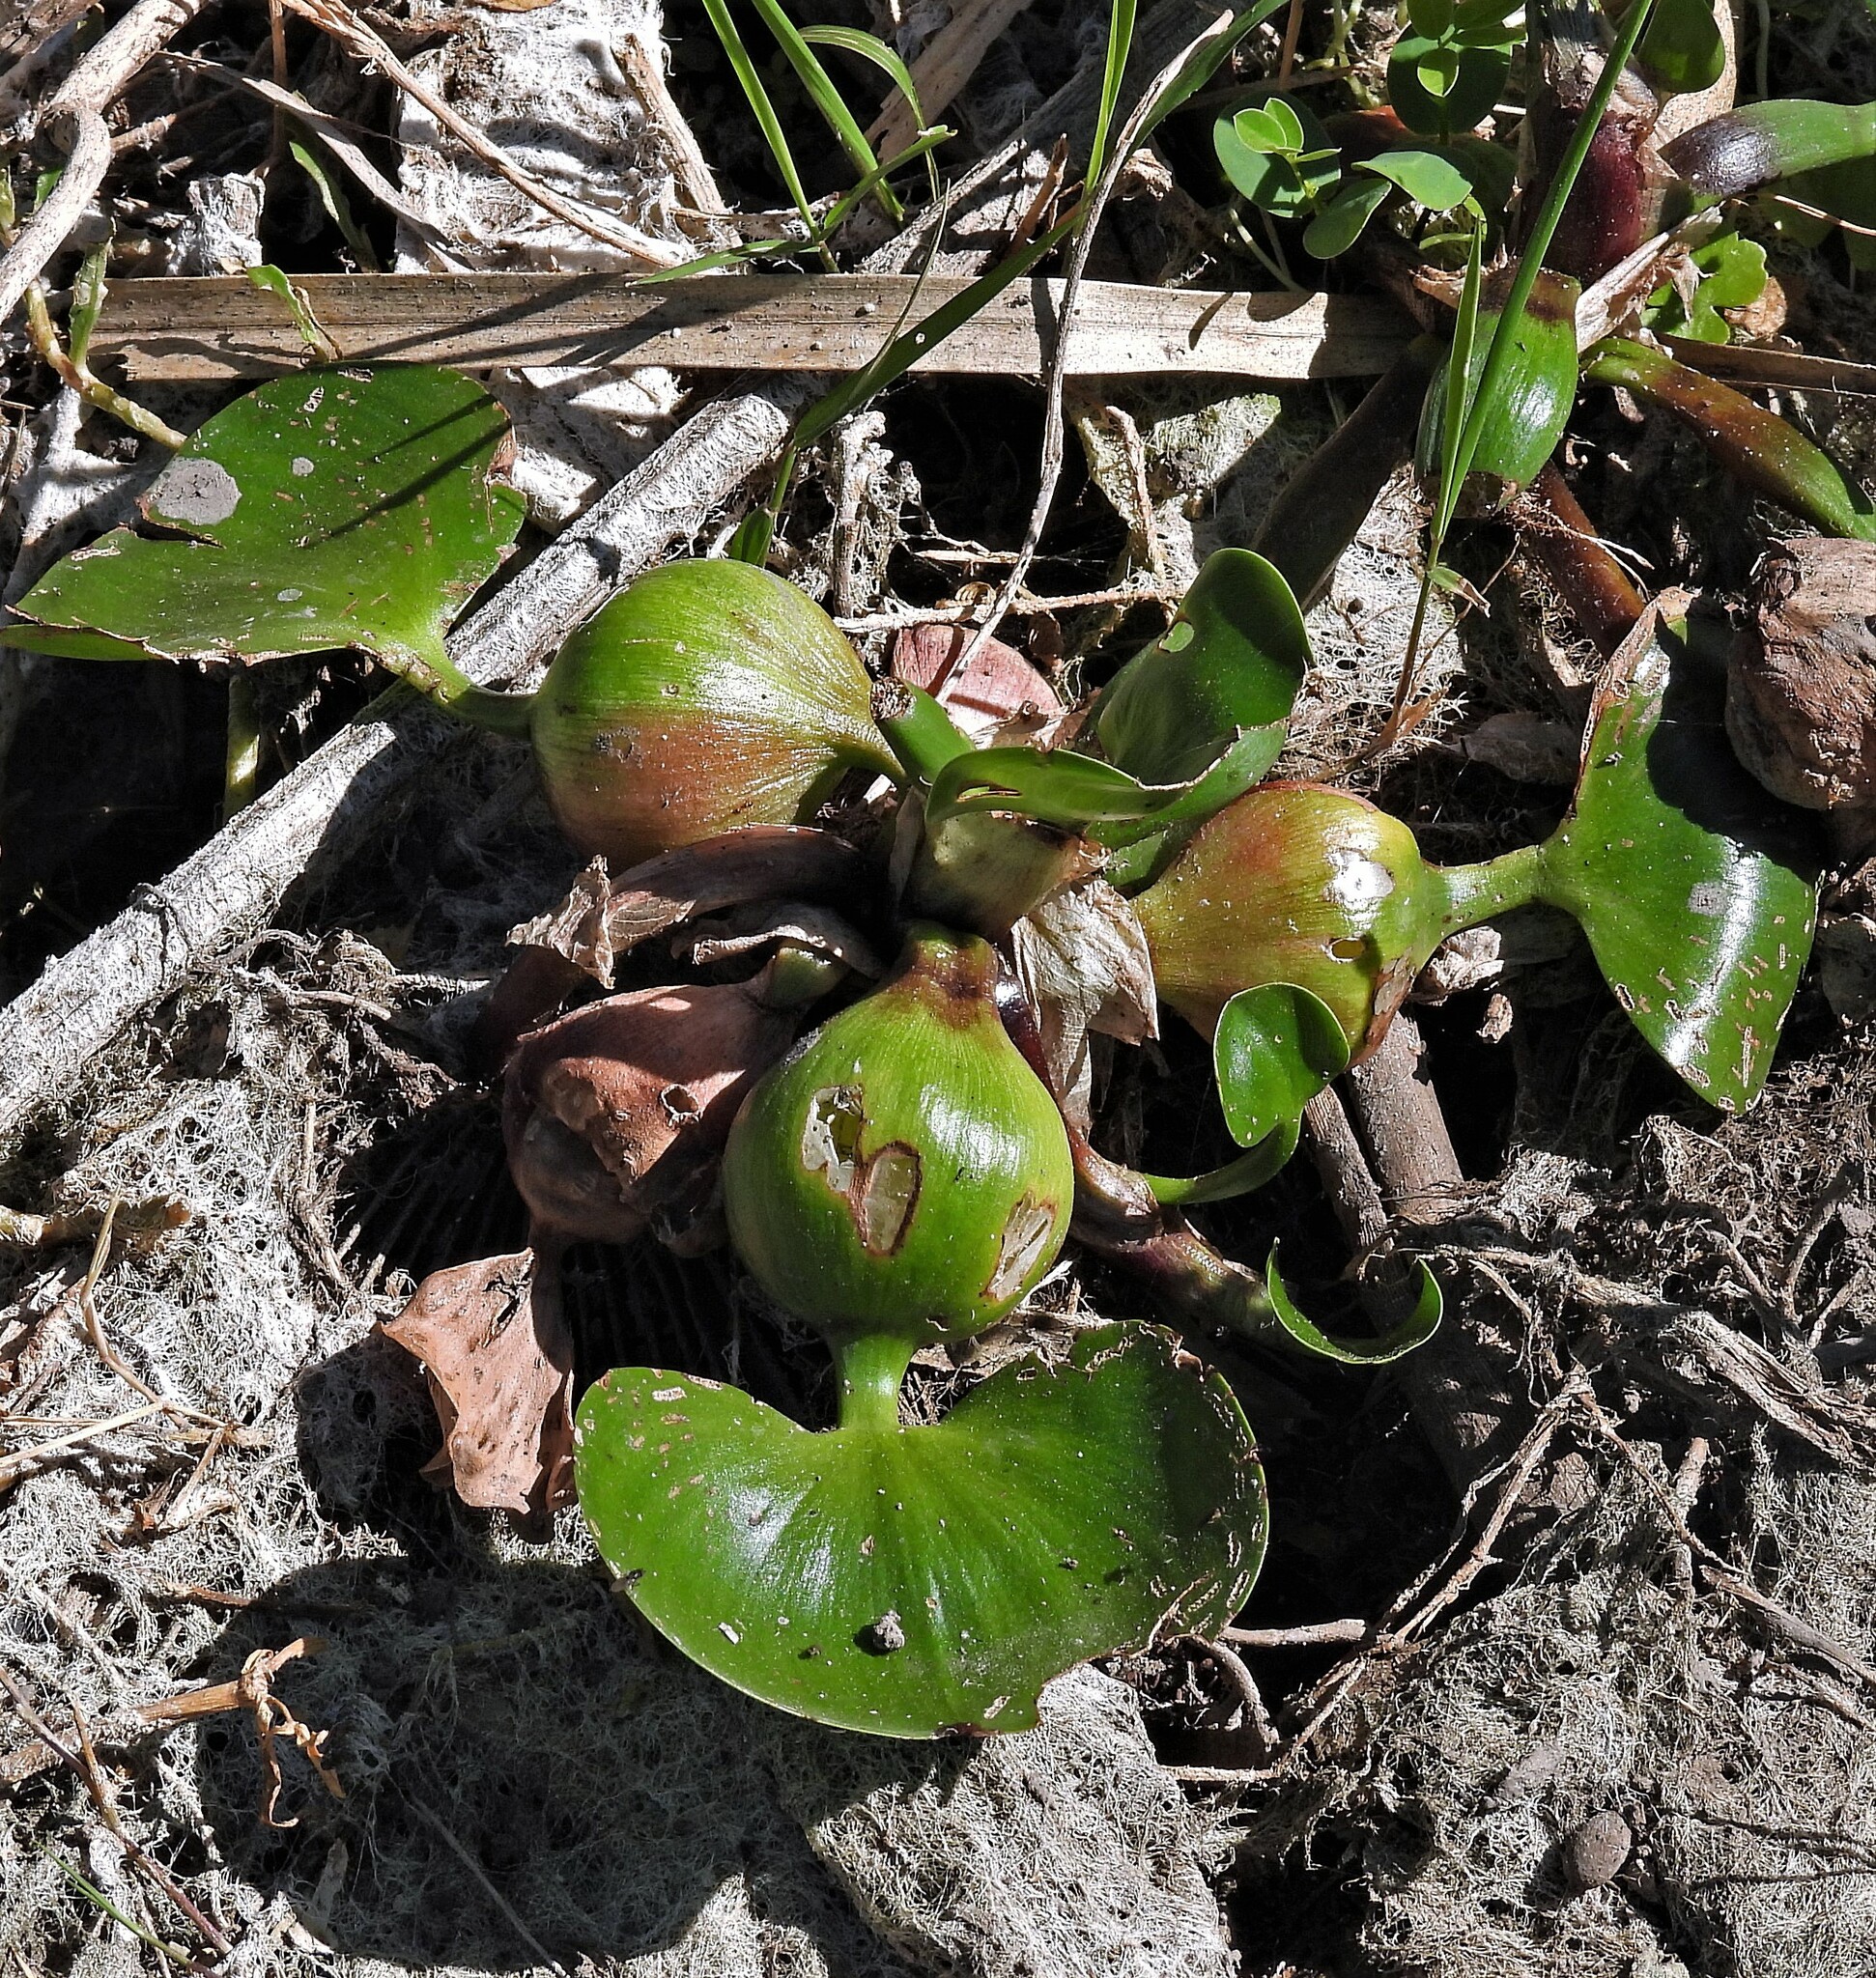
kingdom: Plantae
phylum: Tracheophyta
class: Liliopsida
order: Commelinales
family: Pontederiaceae
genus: Pontederia
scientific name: Pontederia crassipes
